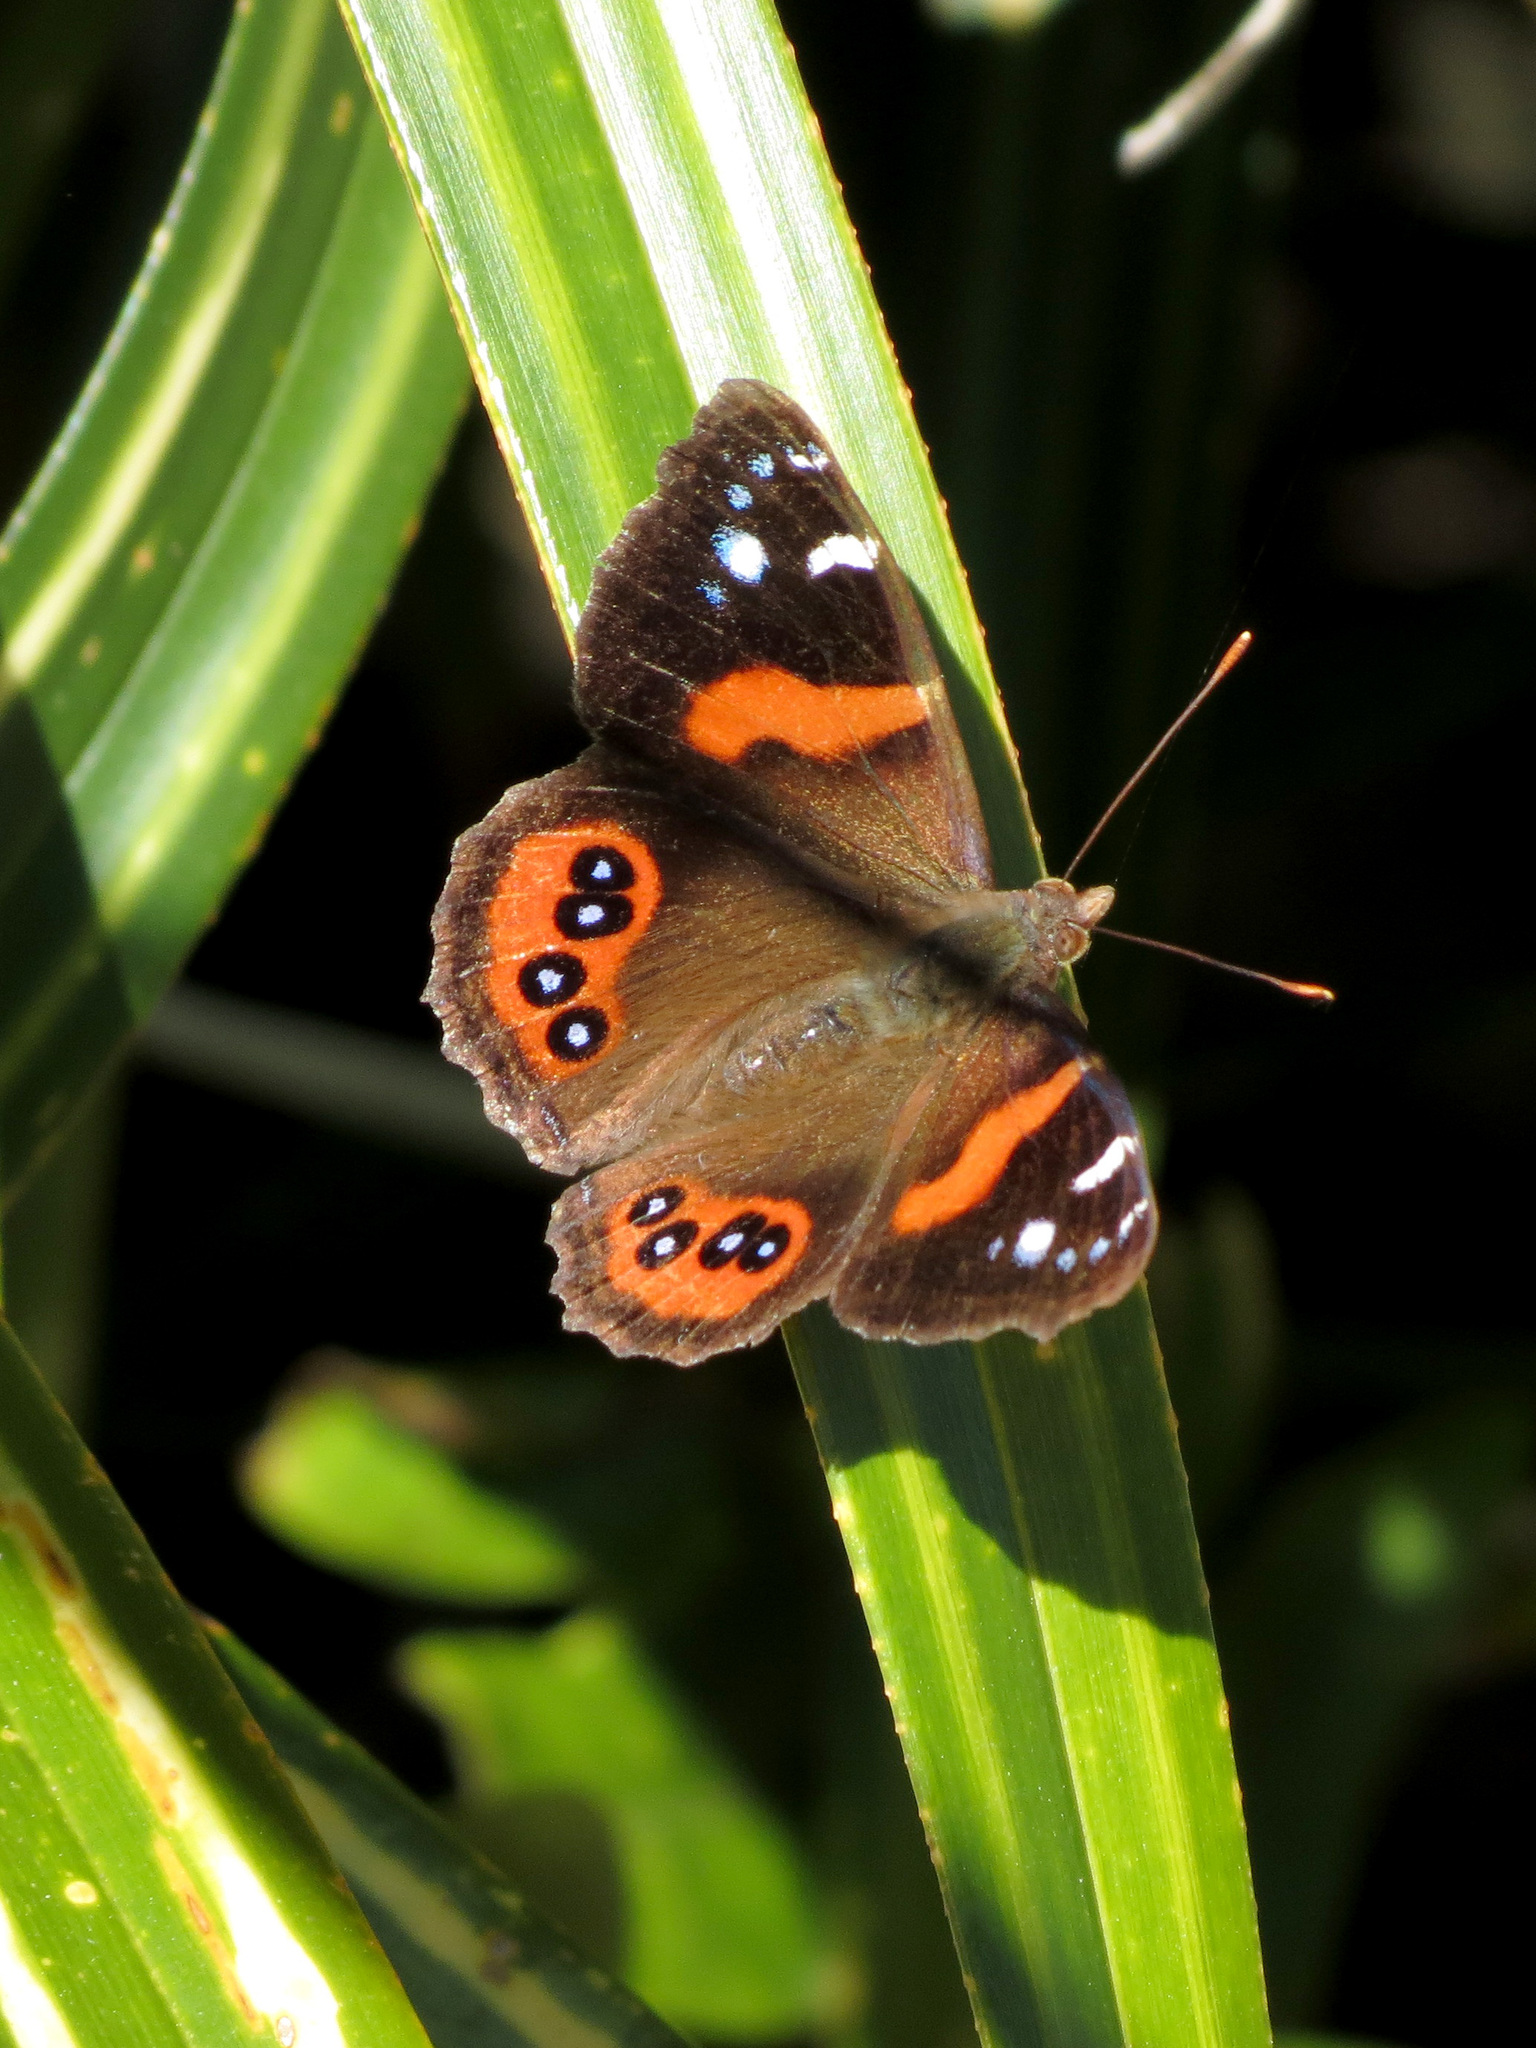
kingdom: Animalia
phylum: Arthropoda
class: Insecta
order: Lepidoptera
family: Nymphalidae
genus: Vanessa
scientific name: Vanessa gonerilla
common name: New zealand red admiral
